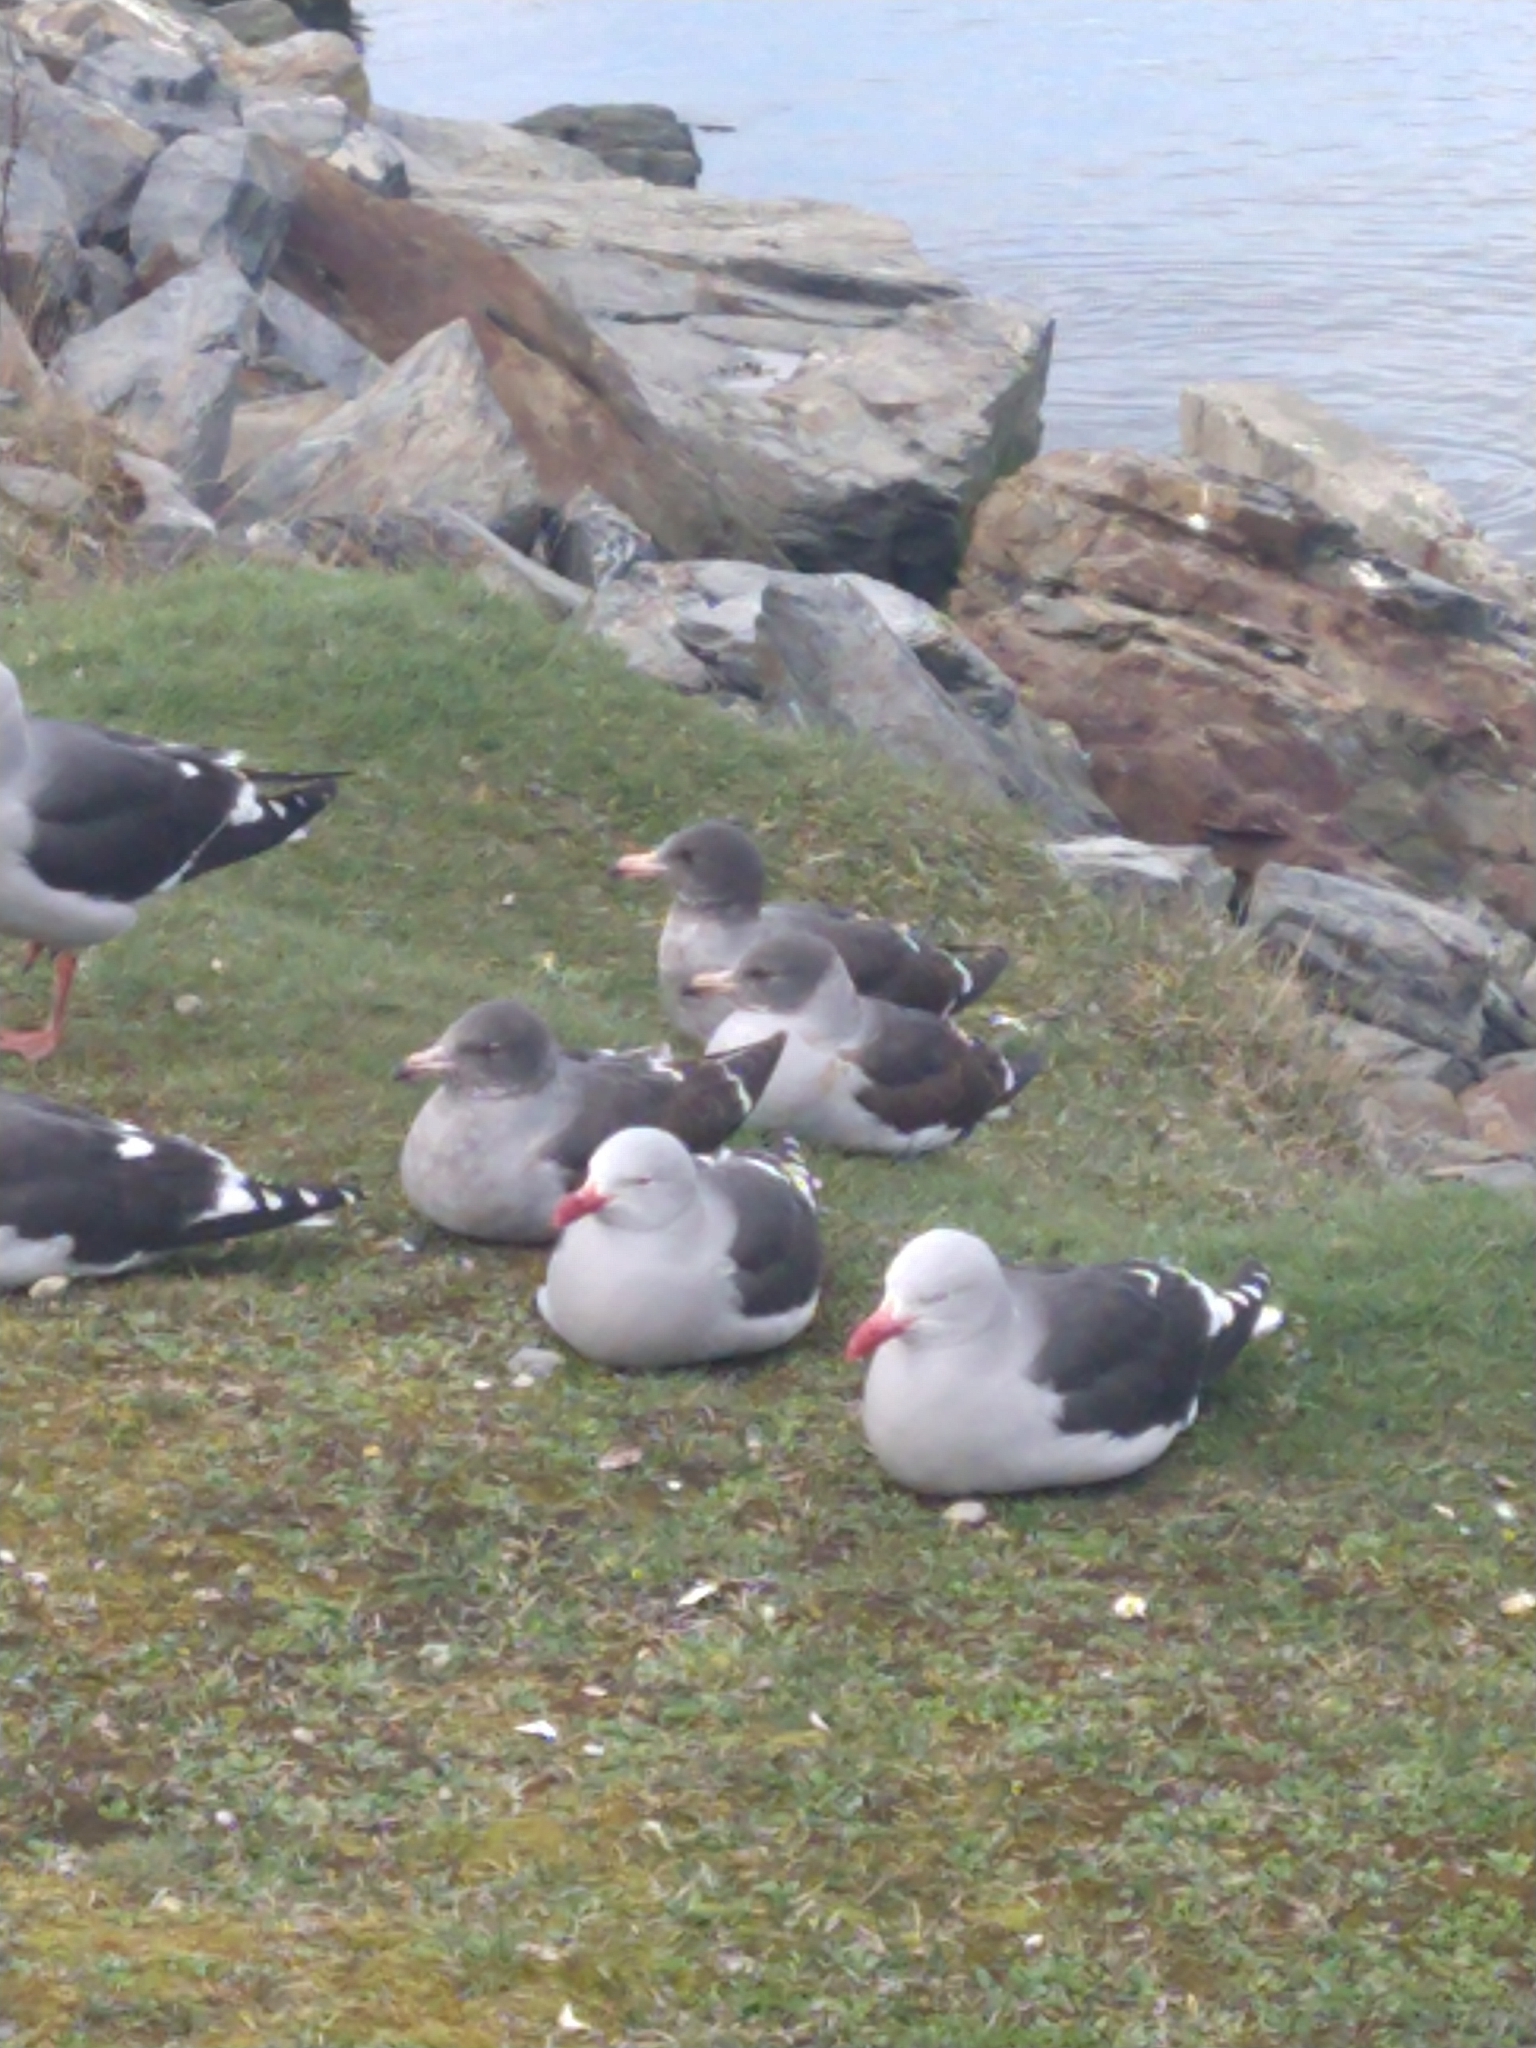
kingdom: Animalia
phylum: Chordata
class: Aves
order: Charadriiformes
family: Laridae
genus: Leucophaeus
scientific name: Leucophaeus scoresbii
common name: Dolphin gull
